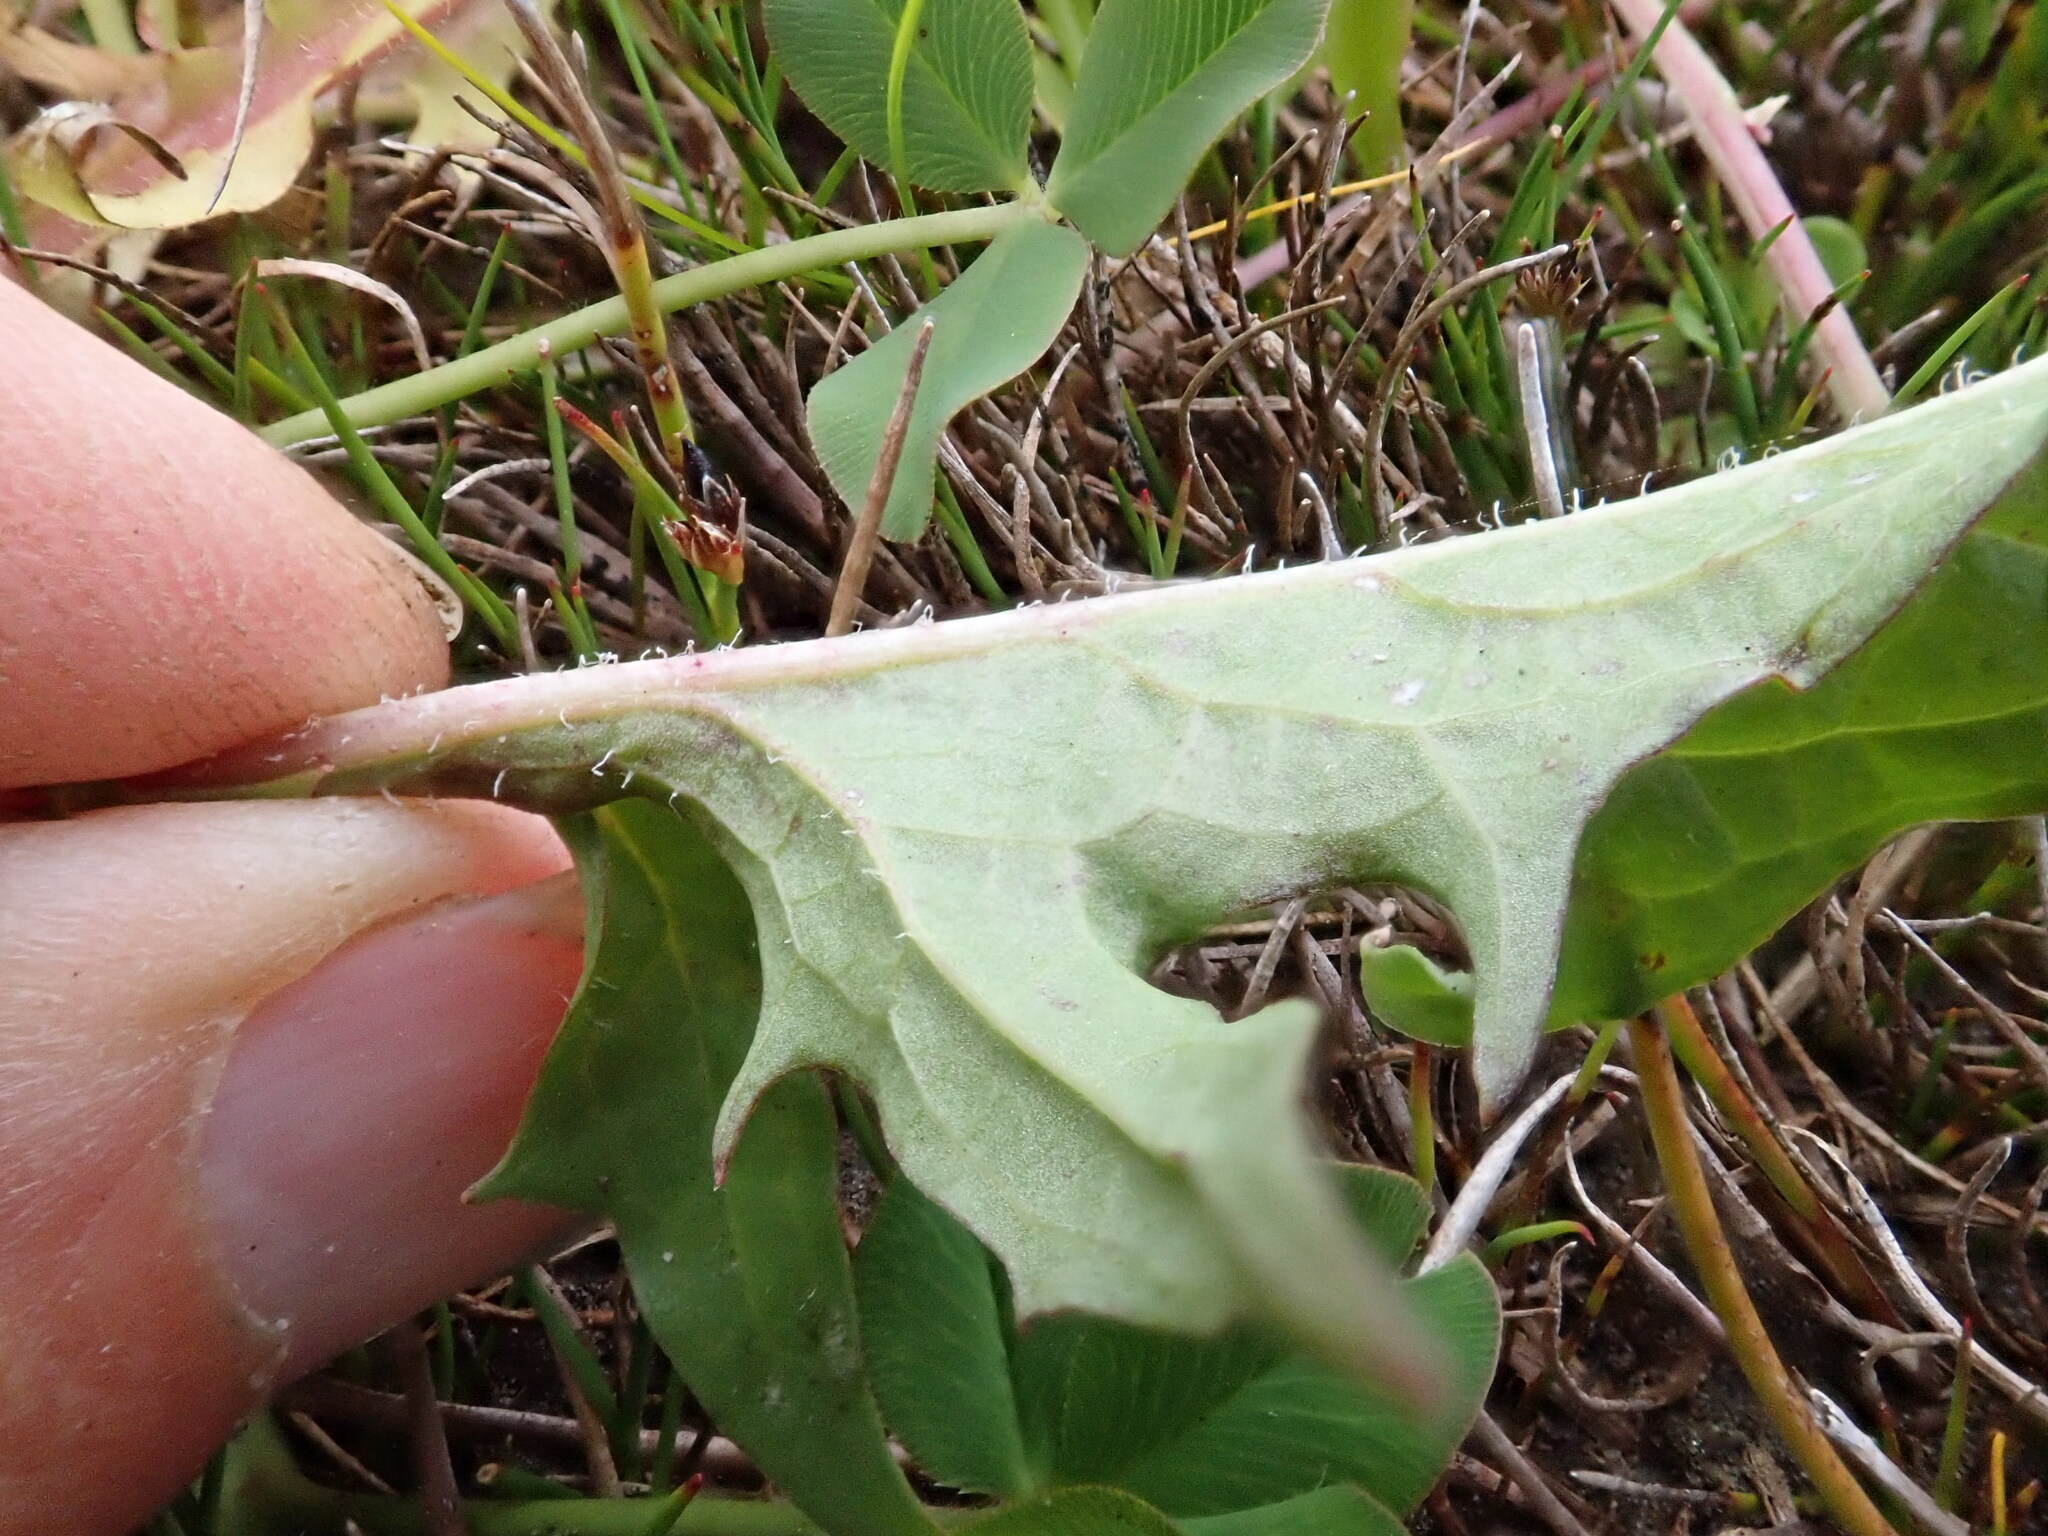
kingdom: Plantae
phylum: Tracheophyta
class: Magnoliopsida
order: Asterales
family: Asteraceae
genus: Crepis
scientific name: Crepis capillaris
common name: Smooth hawksbeard
